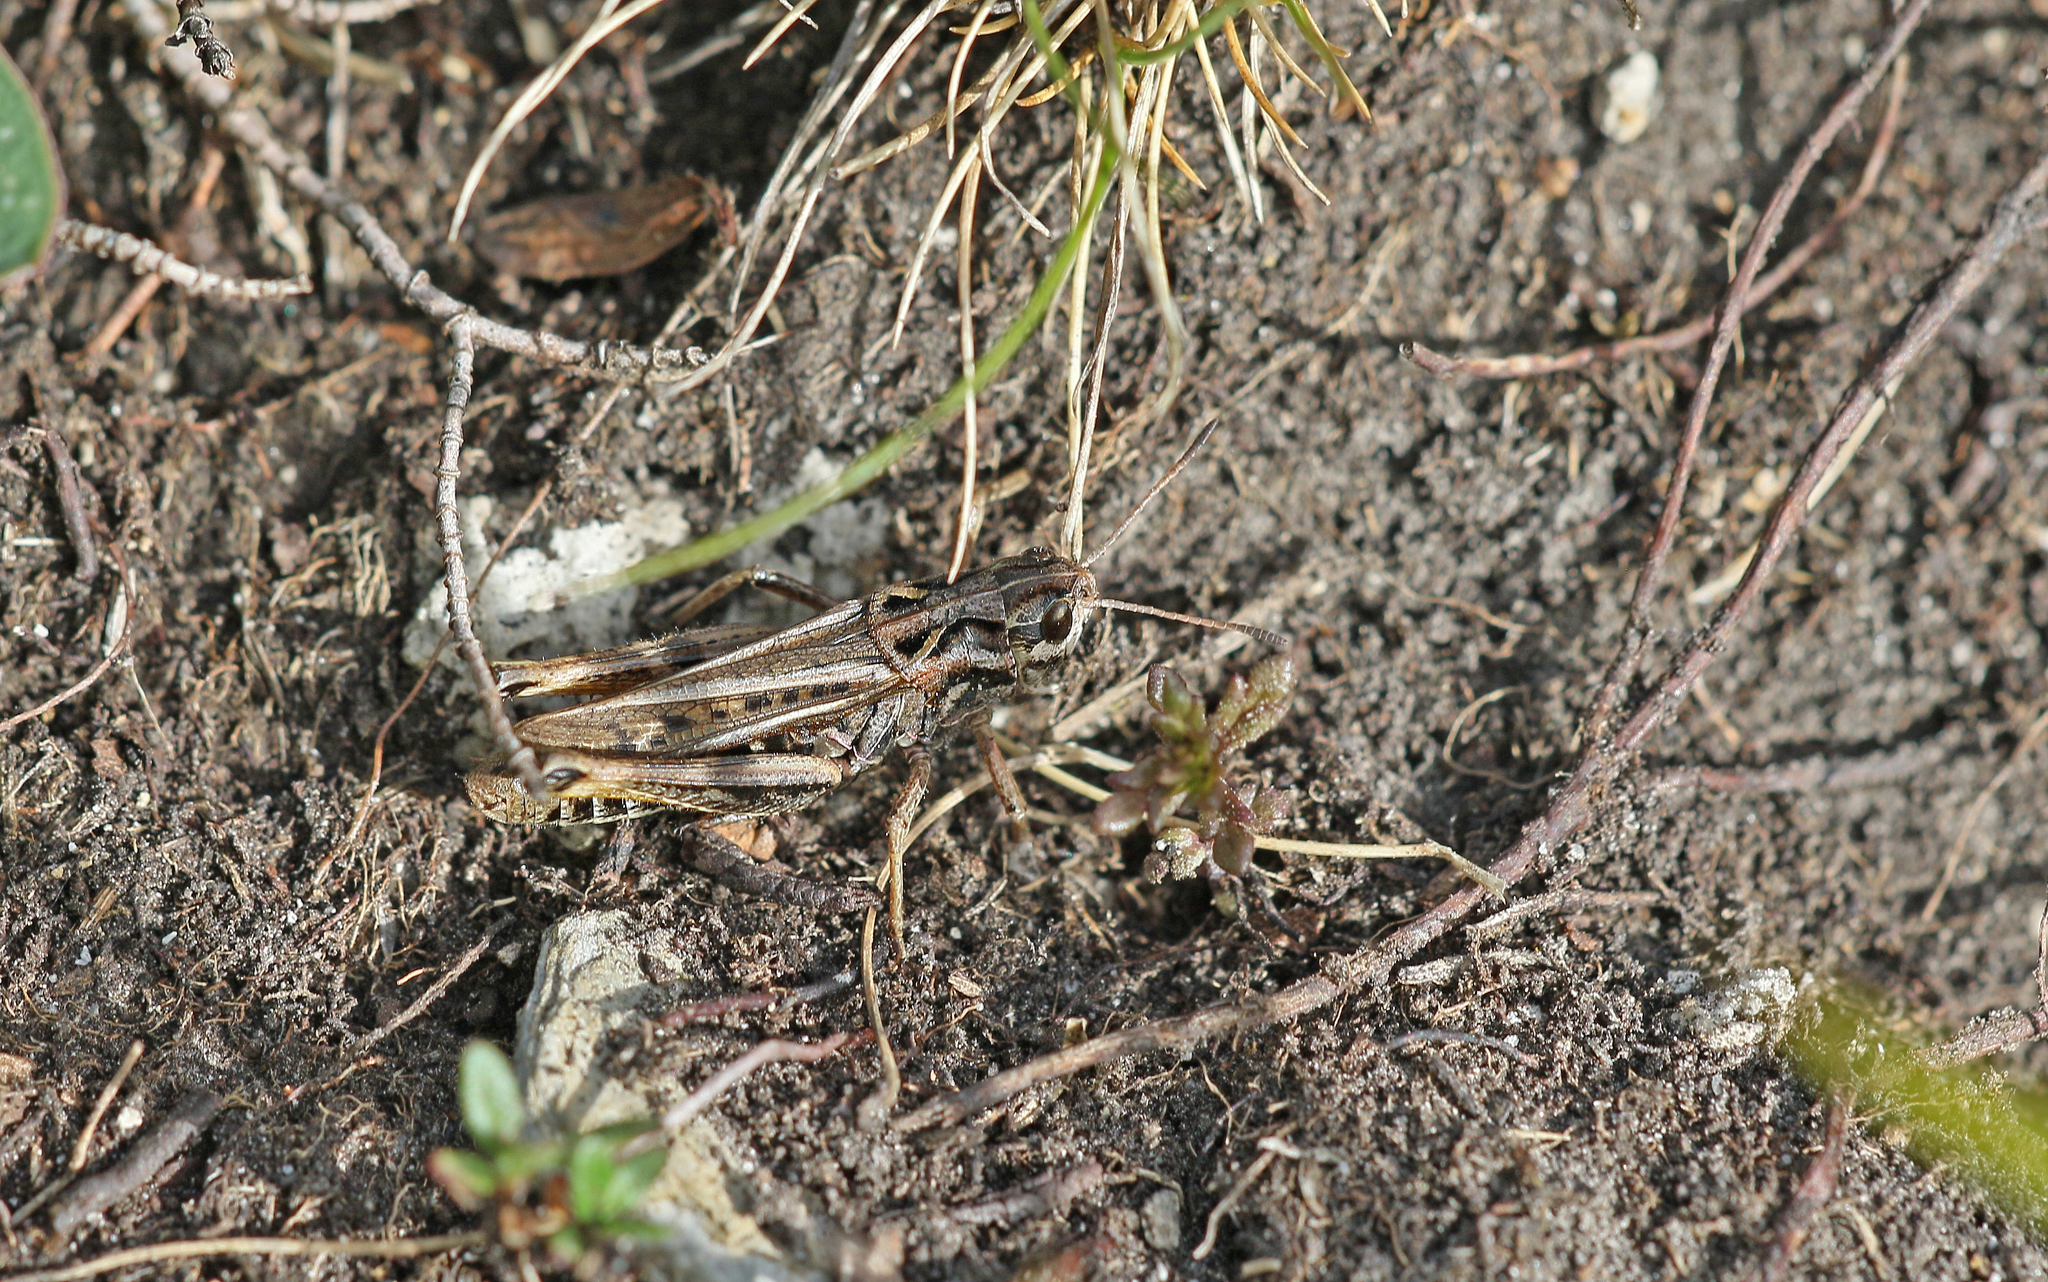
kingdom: Animalia
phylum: Arthropoda
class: Insecta
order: Orthoptera
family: Acrididae
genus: Gomphocerus
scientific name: Gomphocerus sibiricus
